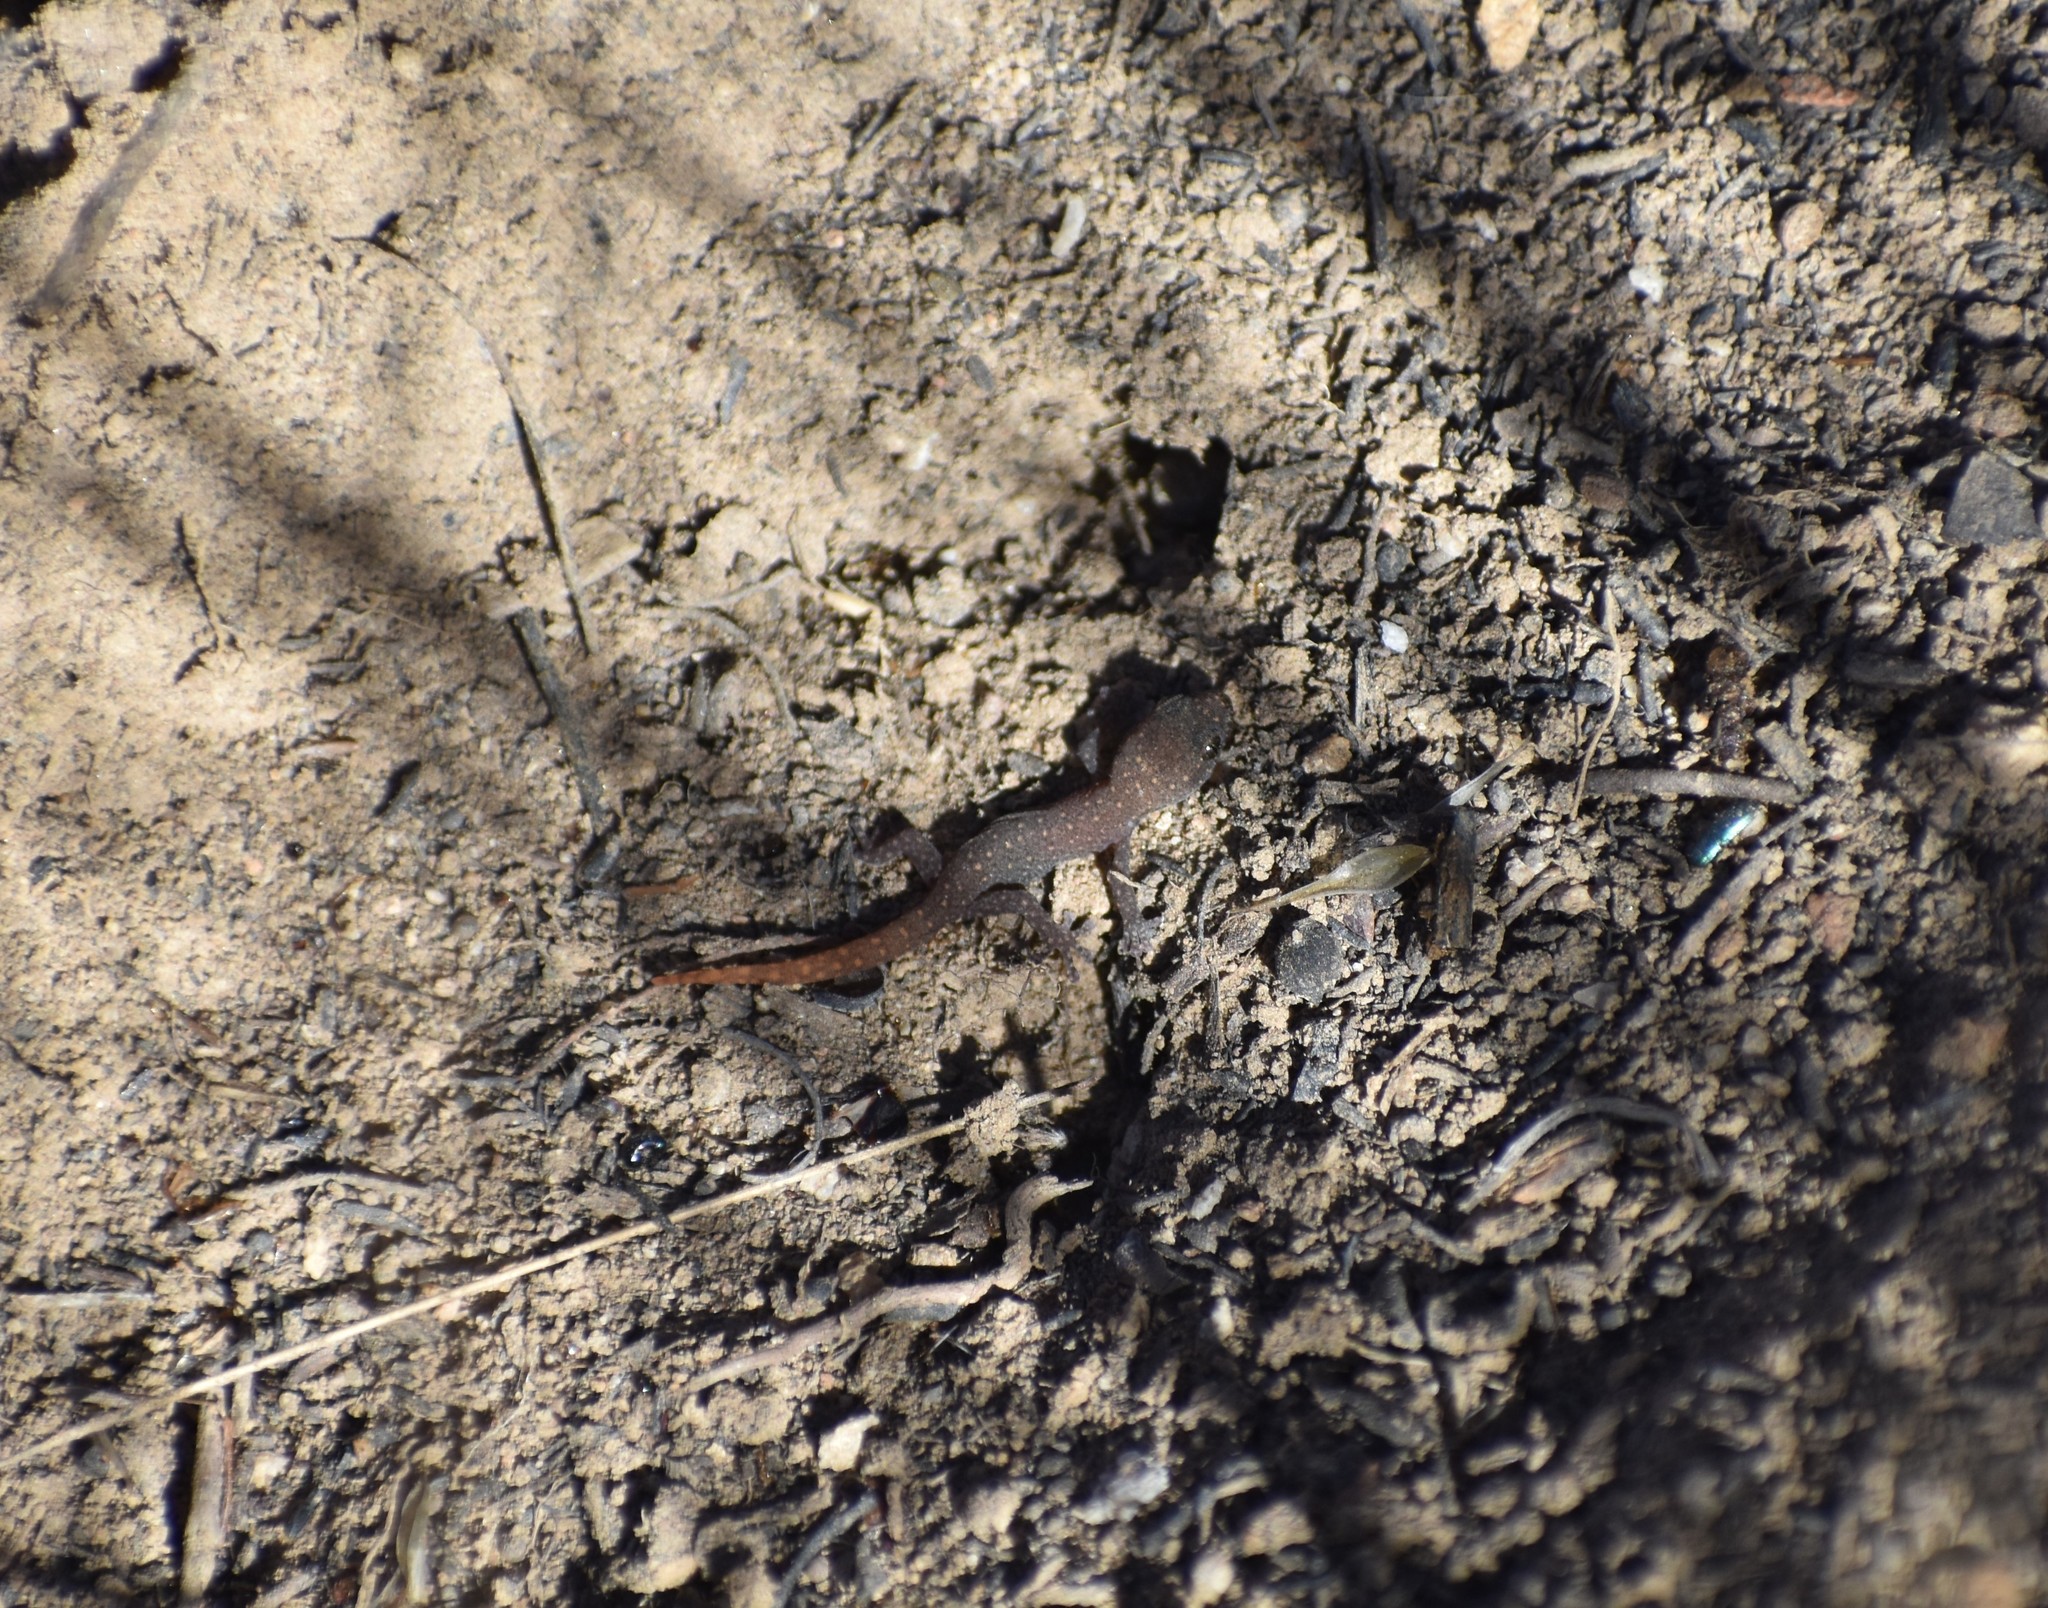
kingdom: Animalia
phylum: Chordata
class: Squamata
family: Gekkonidae
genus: Goggia
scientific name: Goggia hewitti
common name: Hewitt’s dwarf leaf-toed gecko
